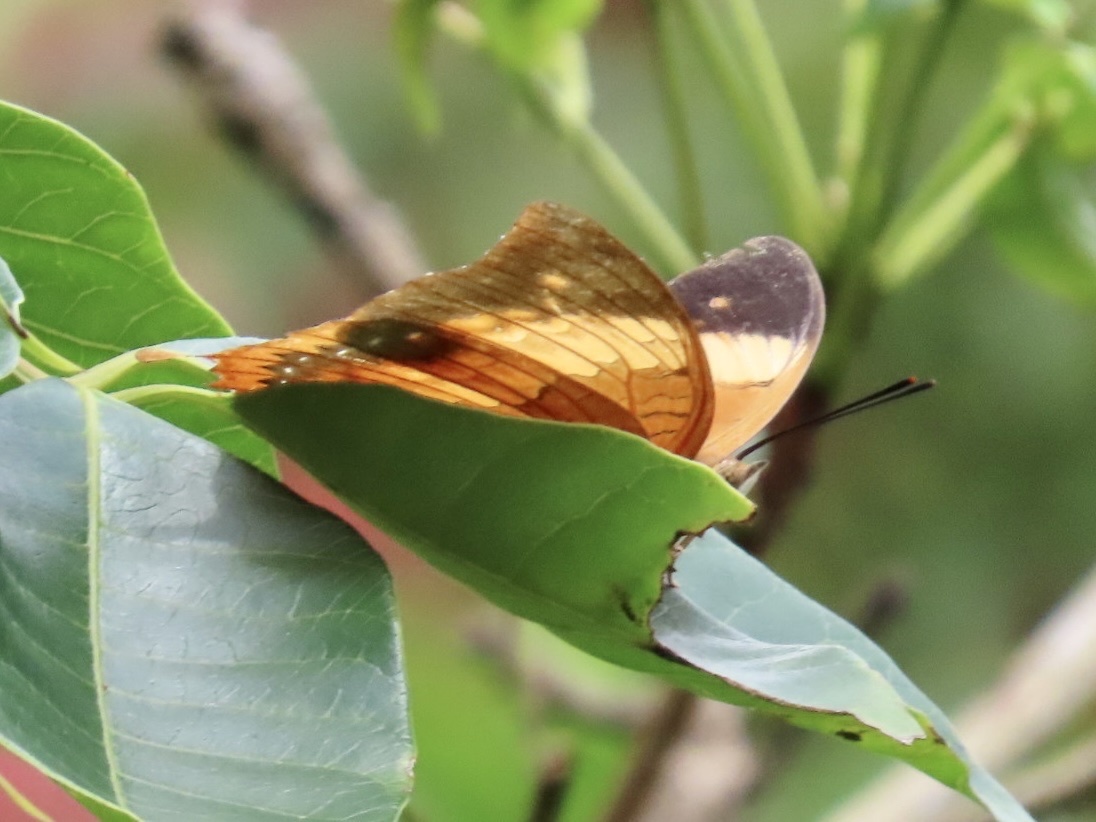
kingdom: Animalia
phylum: Arthropoda
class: Insecta
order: Lepidoptera
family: Nymphalidae
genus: Charaxes
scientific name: Charaxes bernardus
